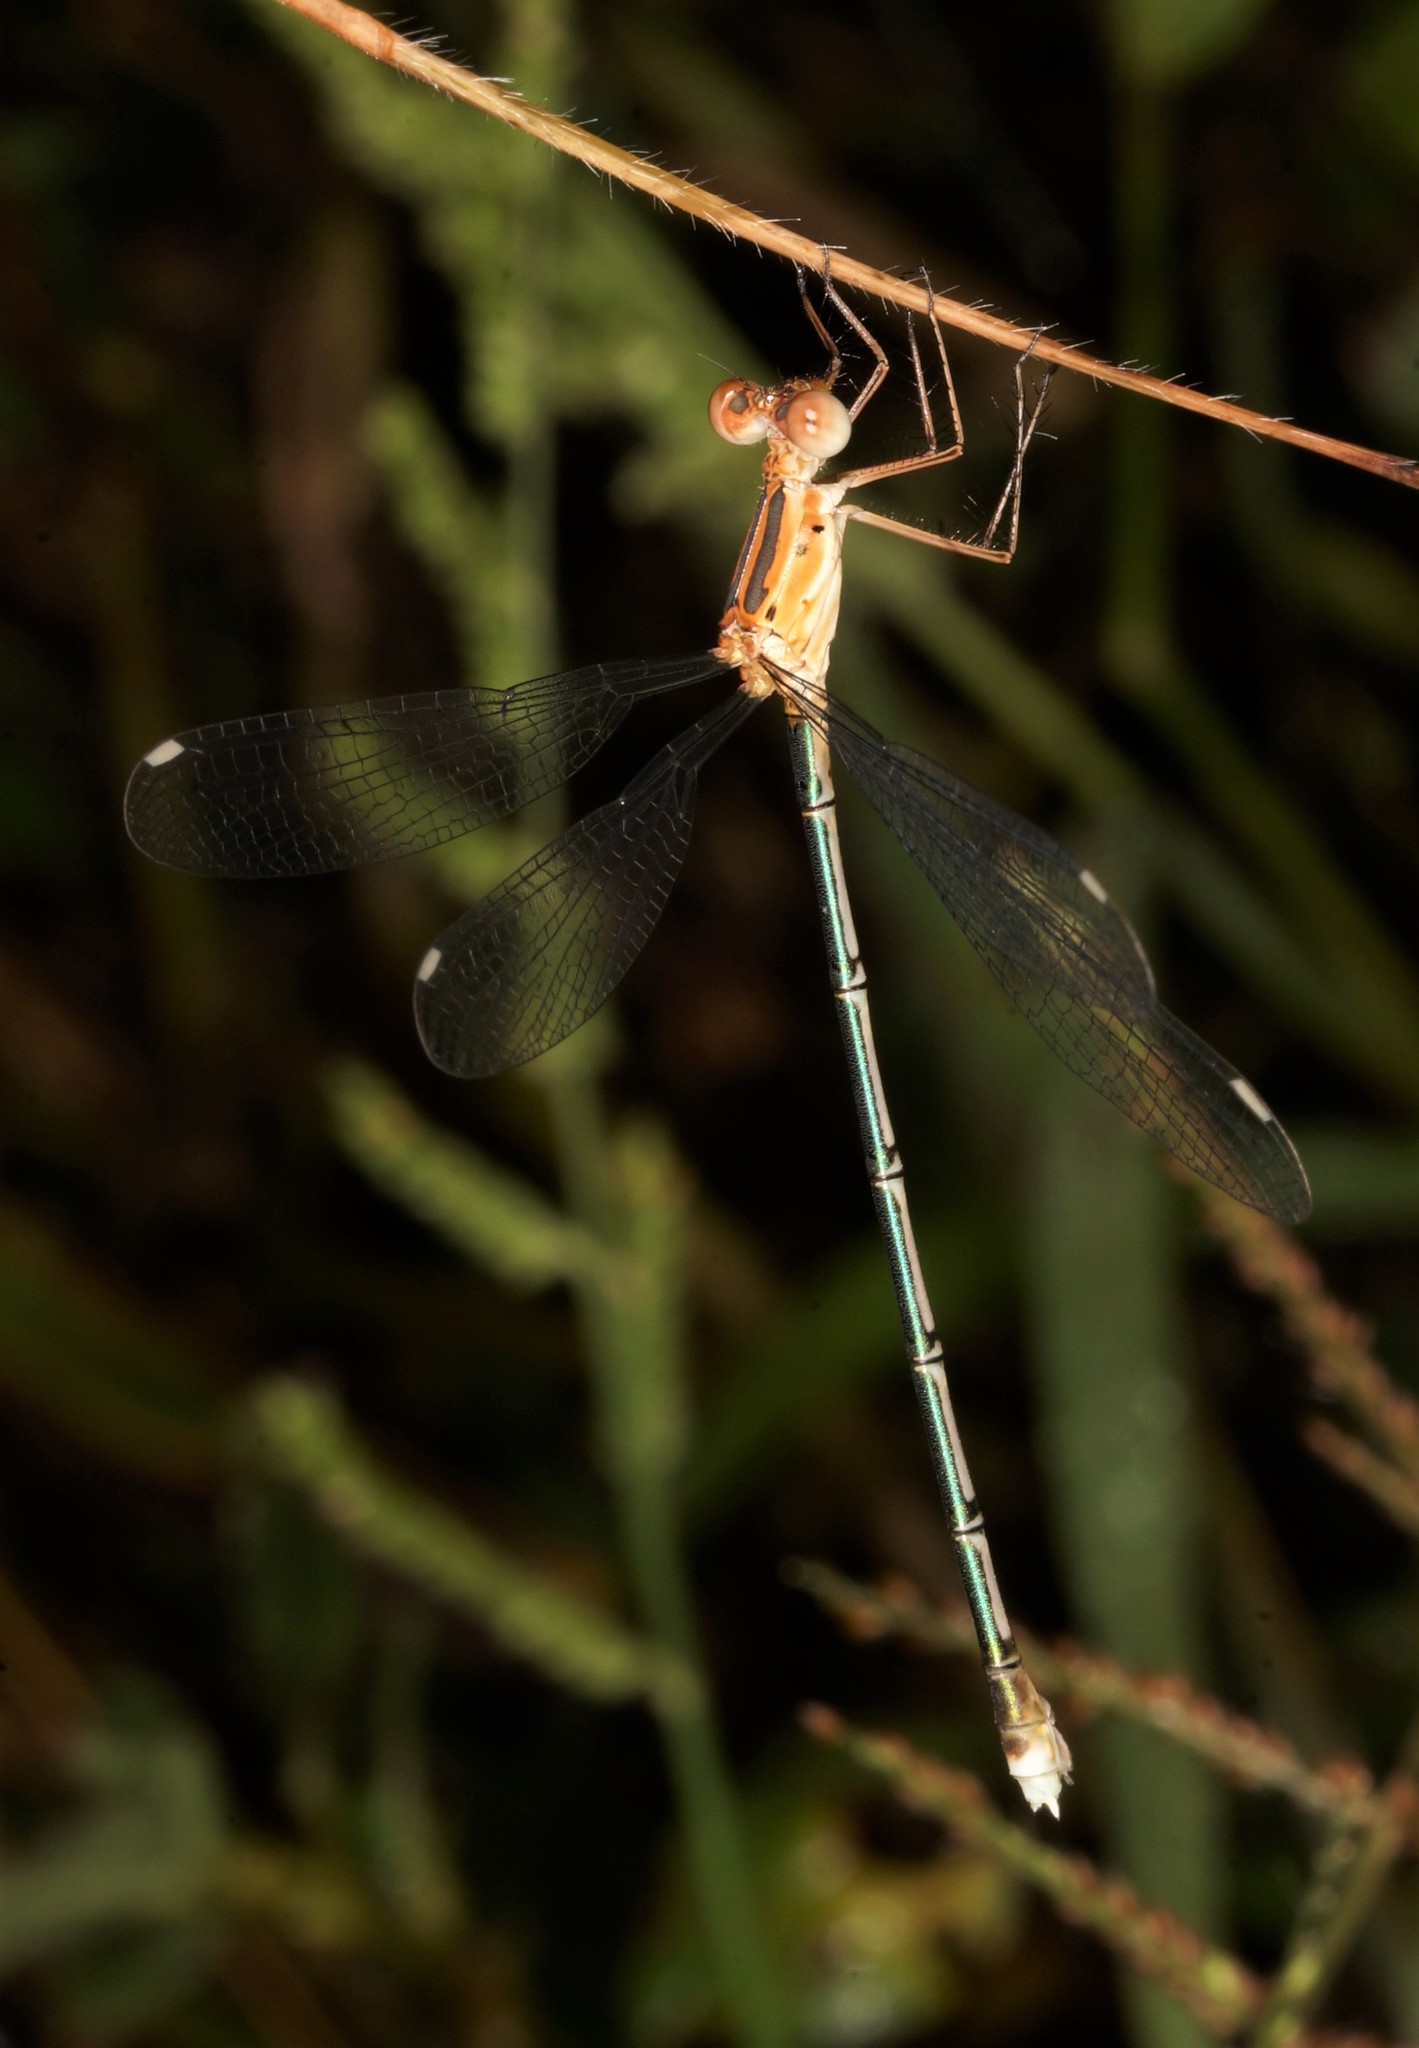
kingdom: Animalia
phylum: Arthropoda
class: Insecta
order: Odonata
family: Lestidae
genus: Lestes
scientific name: Lestes elatus
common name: Emerald spreadwing
